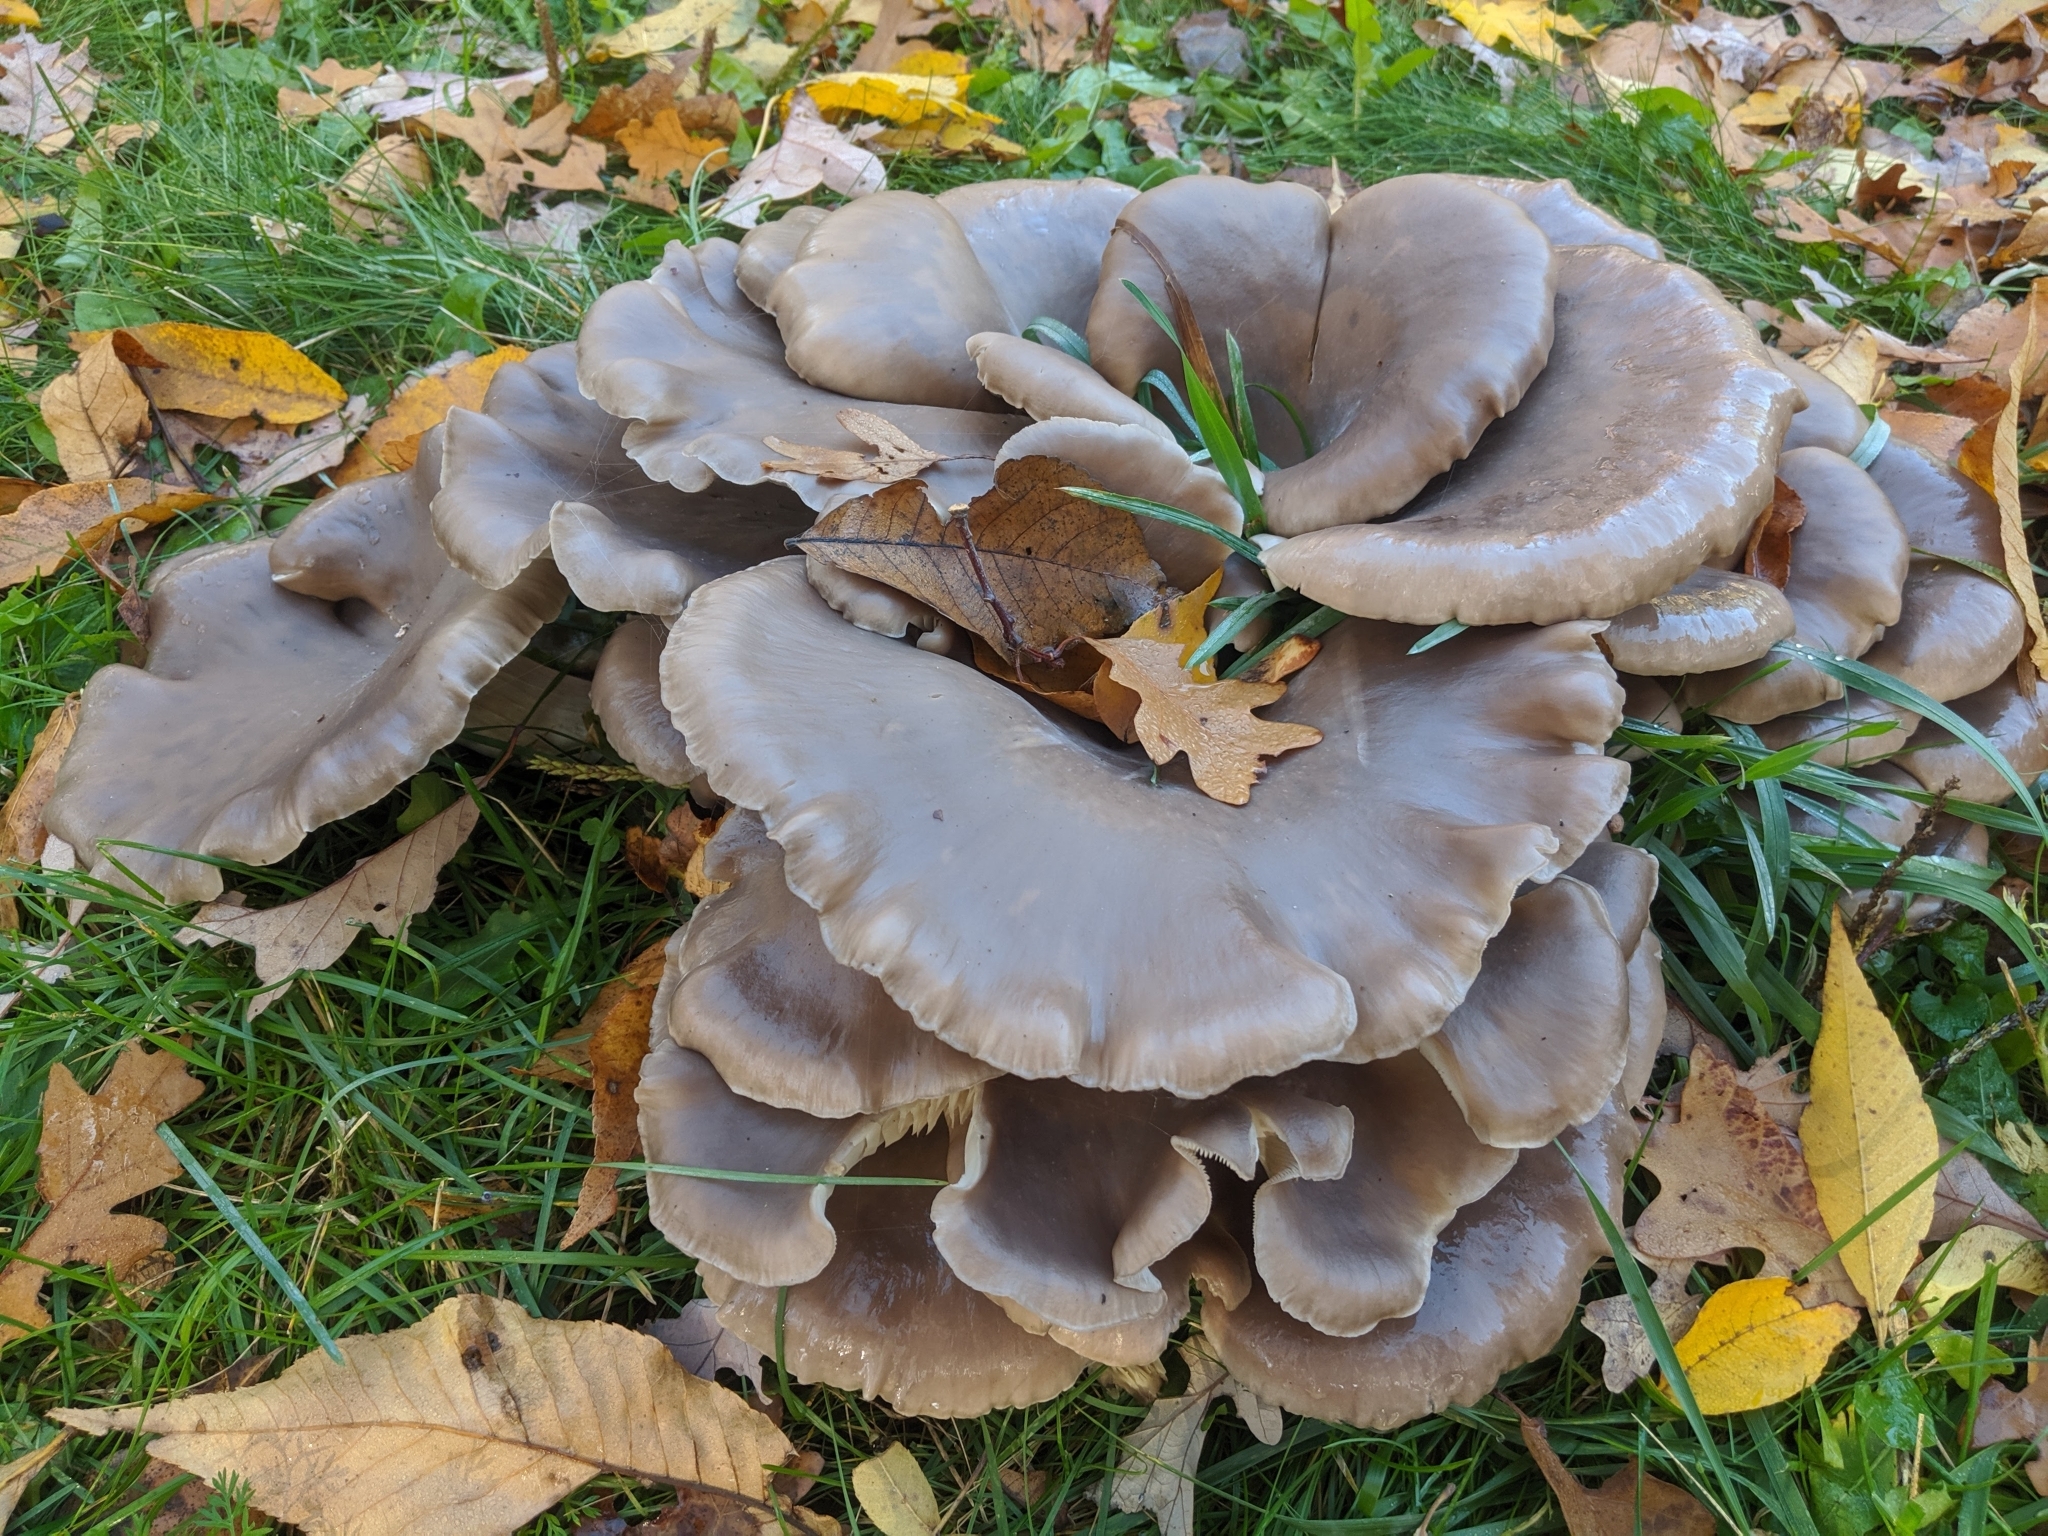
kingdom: Fungi
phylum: Basidiomycota
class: Agaricomycetes
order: Agaricales
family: Pleurotaceae
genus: Pleurotus
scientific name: Pleurotus ostreatus
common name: Oyster mushroom
